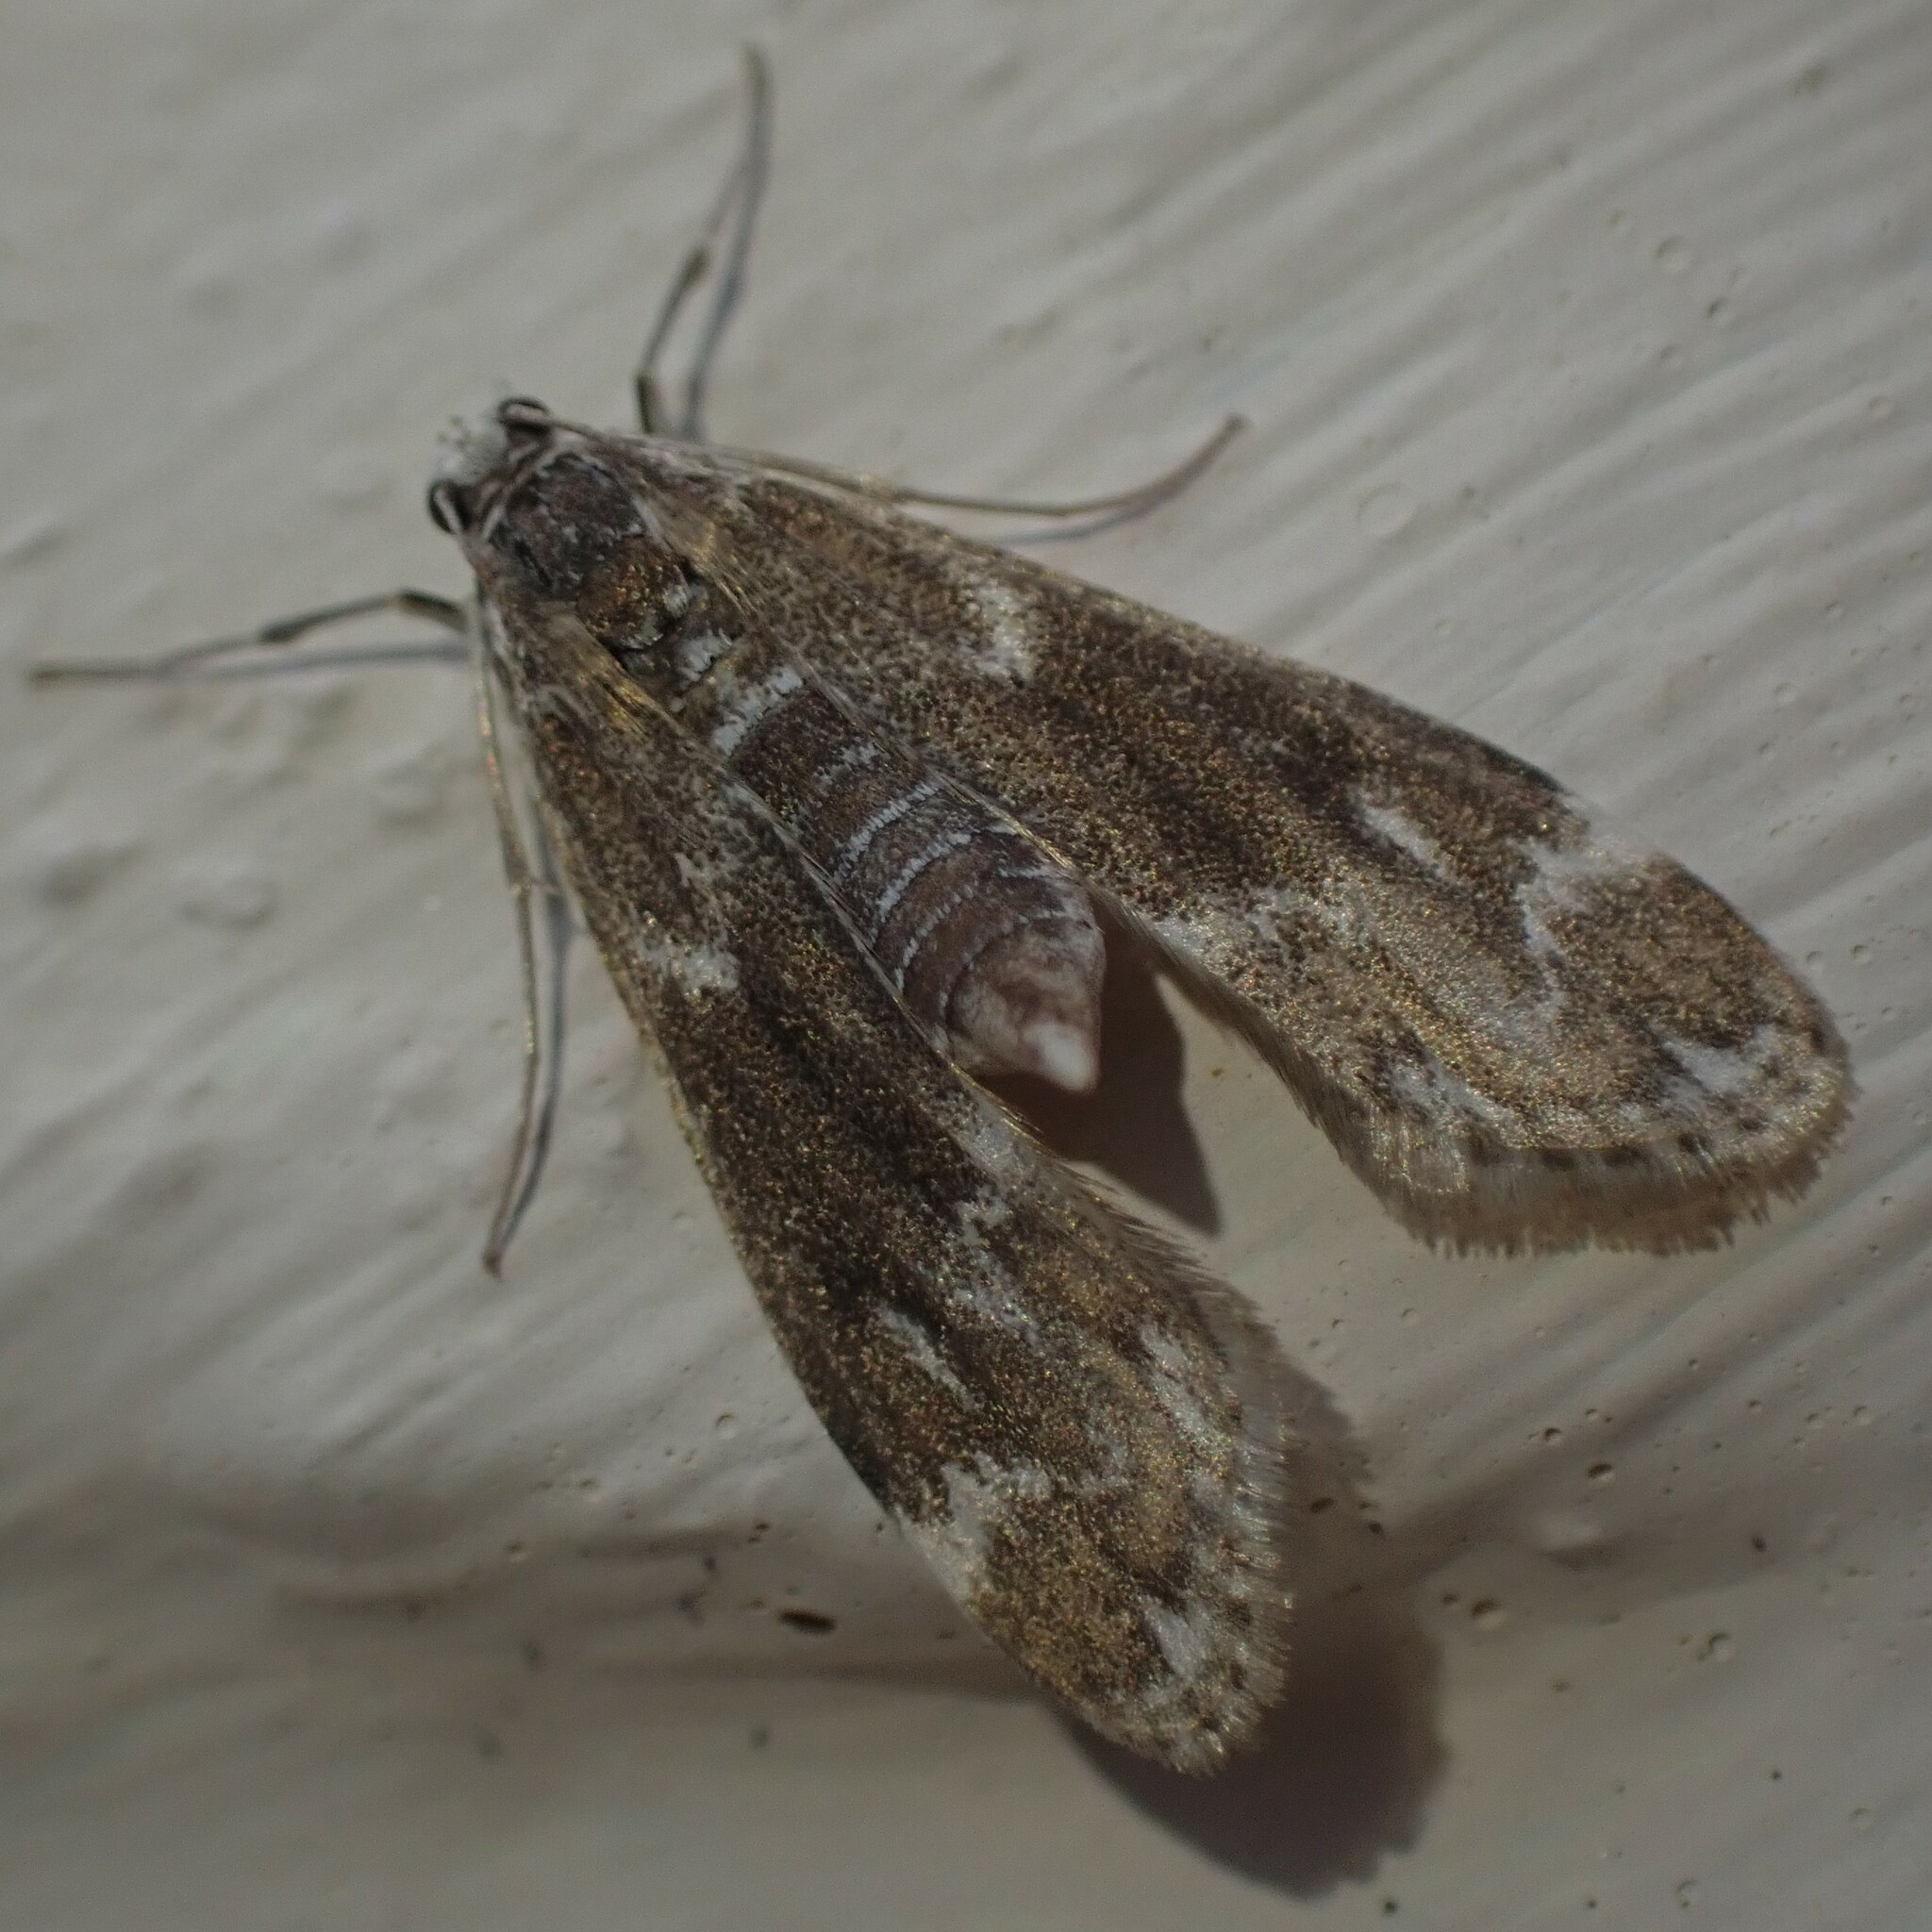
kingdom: Animalia
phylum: Arthropoda
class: Insecta
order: Lepidoptera
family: Crambidae
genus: Hygraula
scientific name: Hygraula nitens
